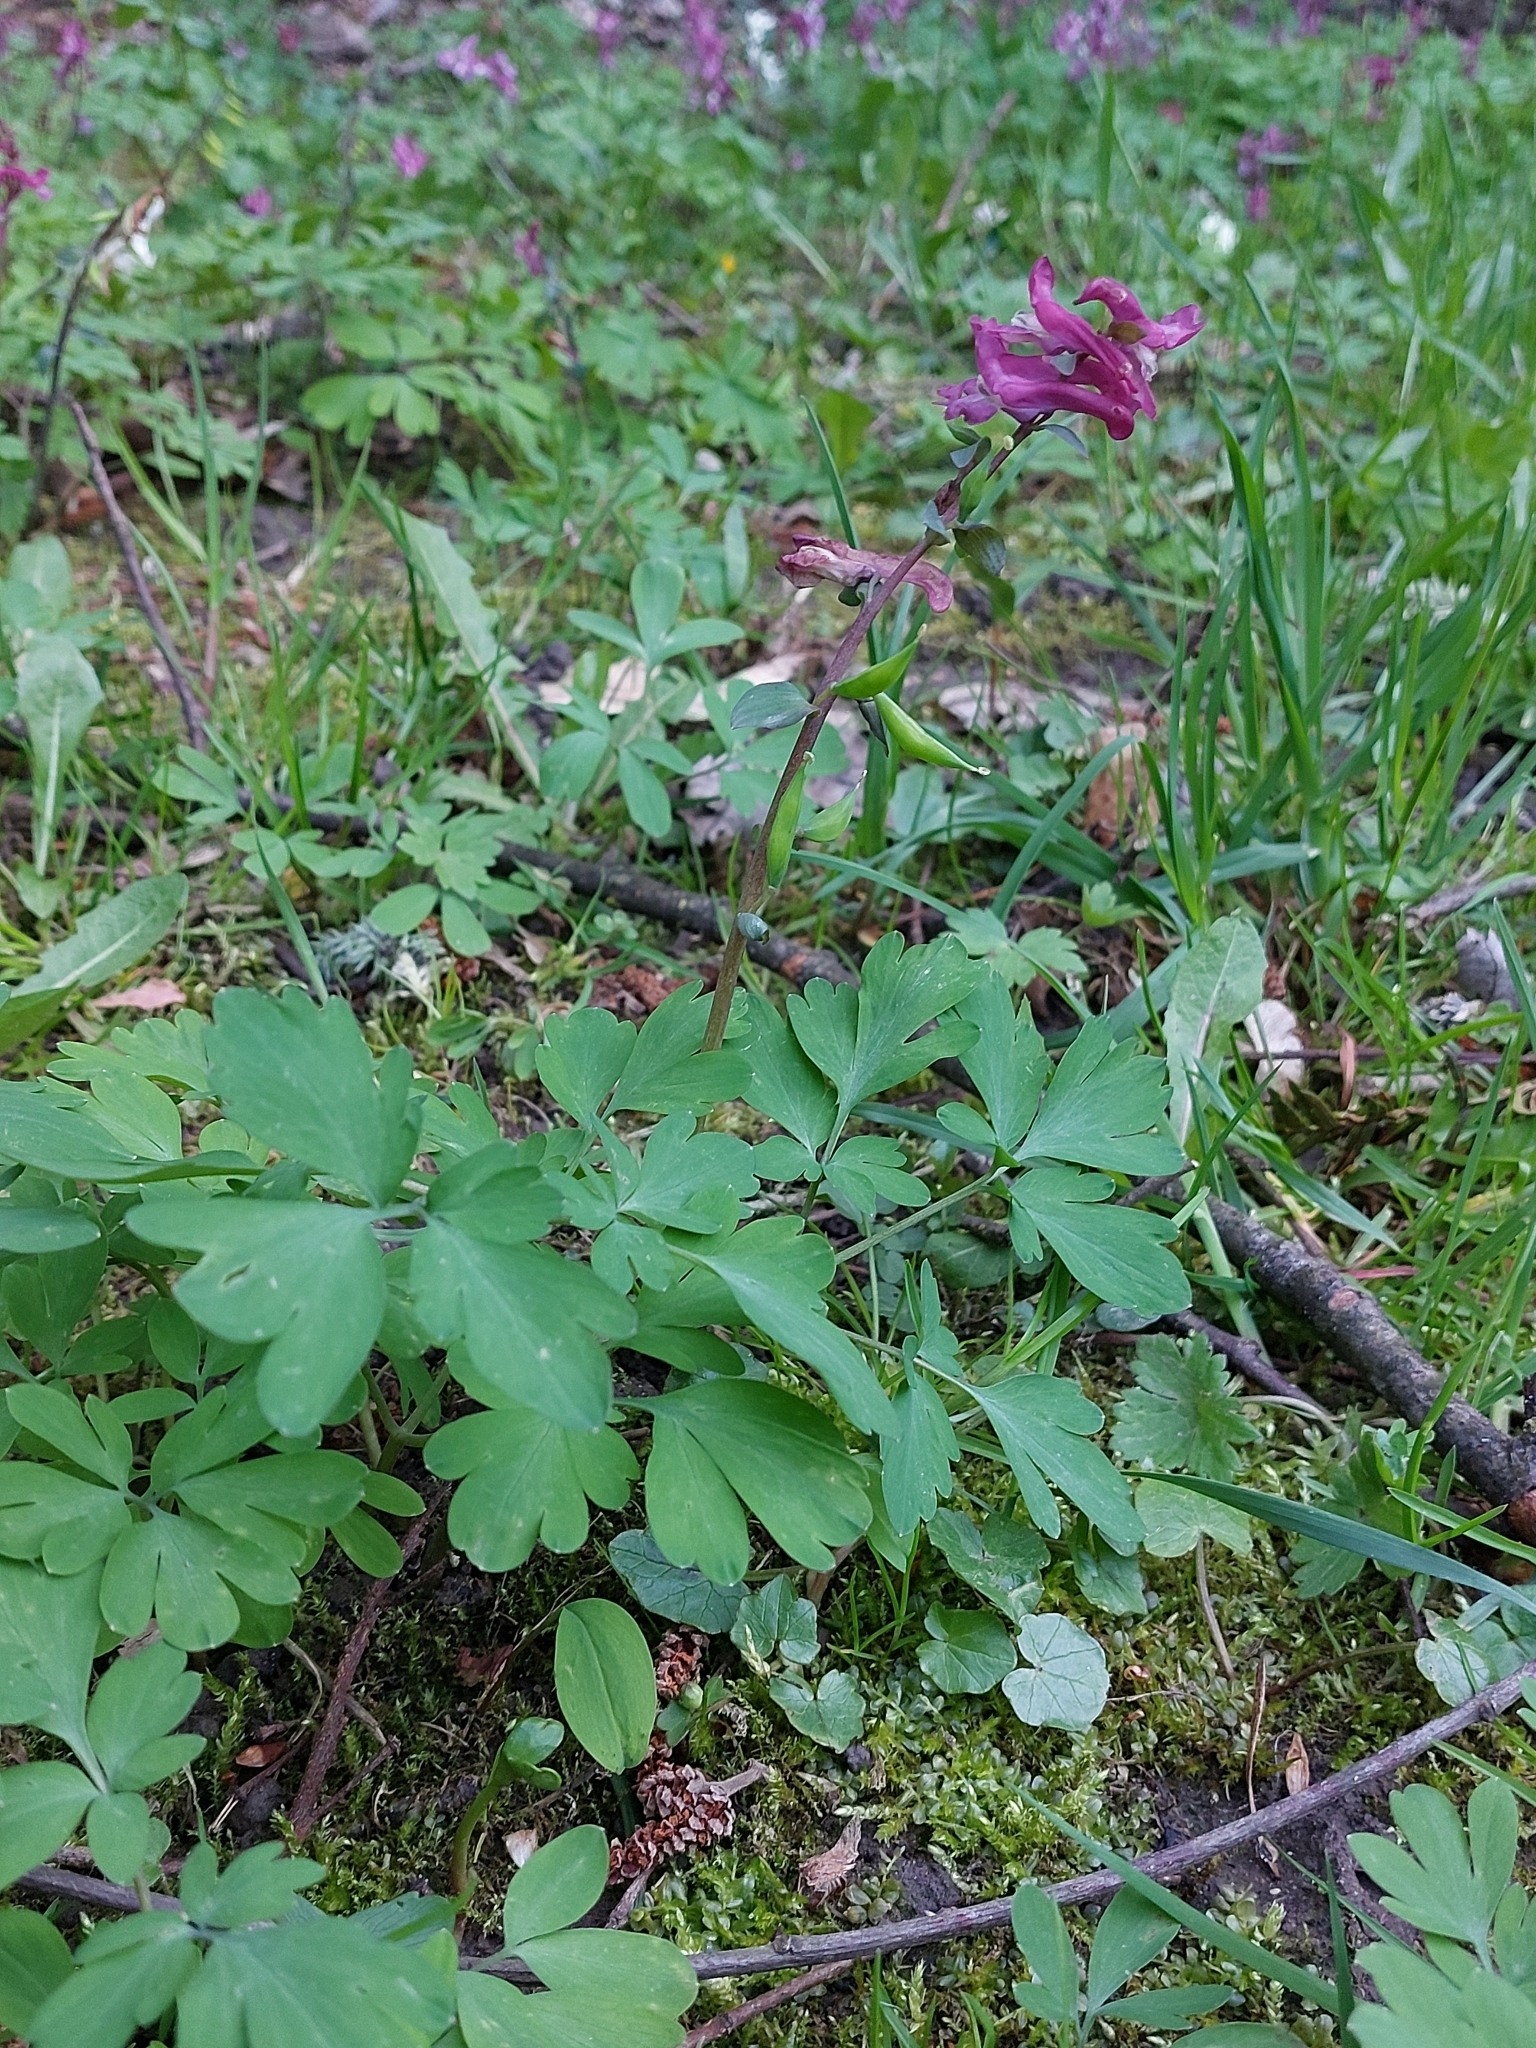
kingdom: Plantae
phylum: Tracheophyta
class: Magnoliopsida
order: Ranunculales
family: Papaveraceae
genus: Corydalis
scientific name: Corydalis cava
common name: Hollowroot
